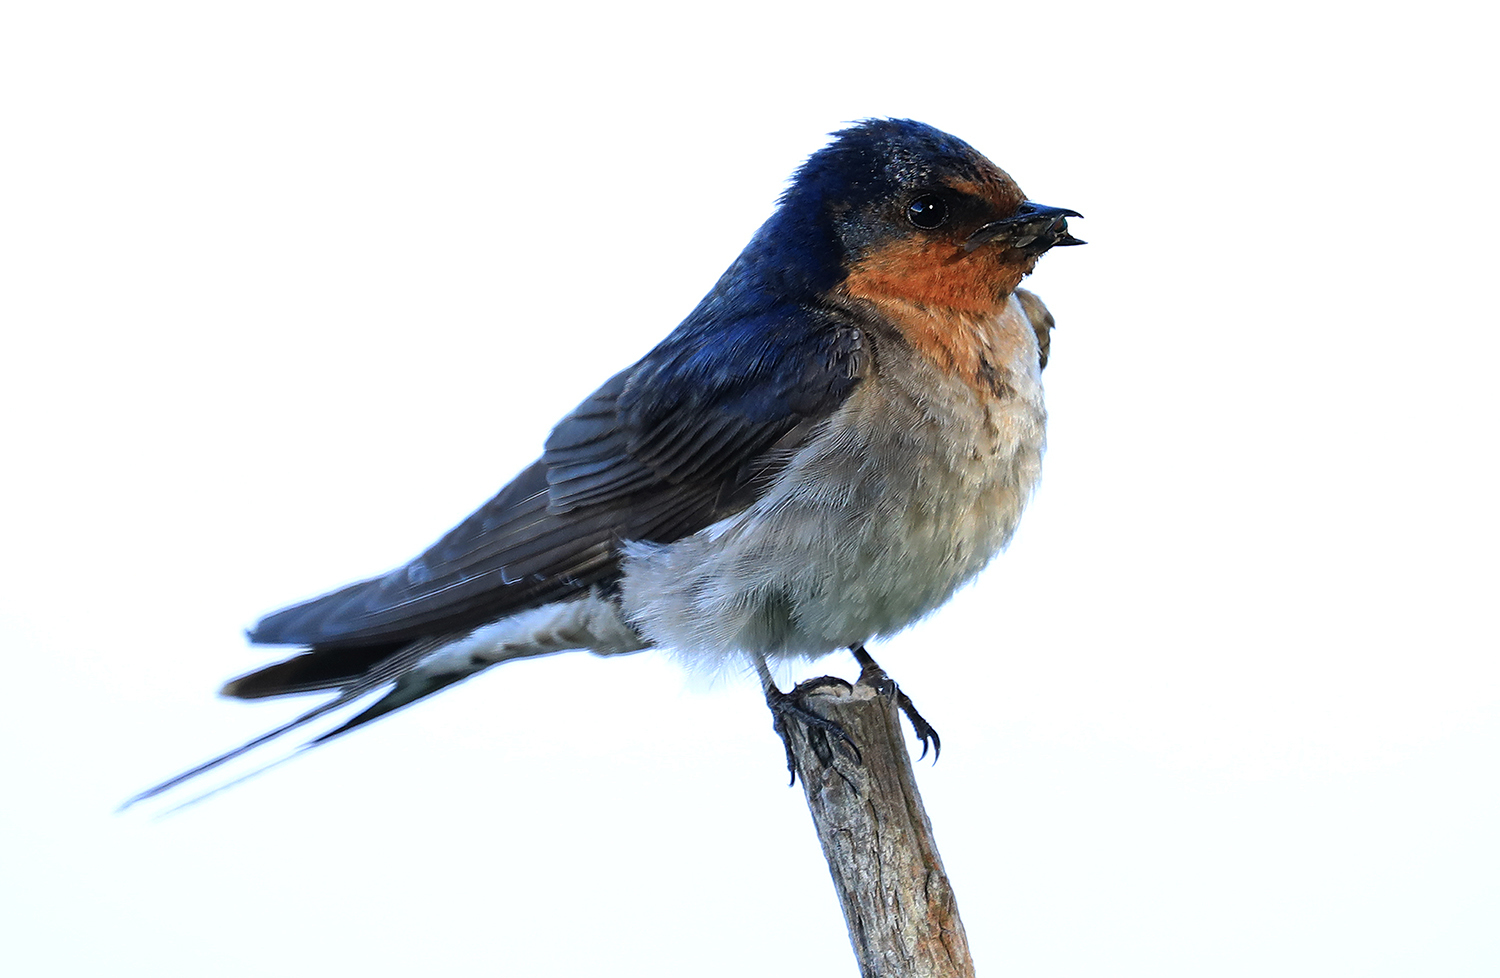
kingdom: Animalia
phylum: Chordata
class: Aves
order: Passeriformes
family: Hirundinidae
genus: Hirundo
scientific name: Hirundo neoxena
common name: Welcome swallow
